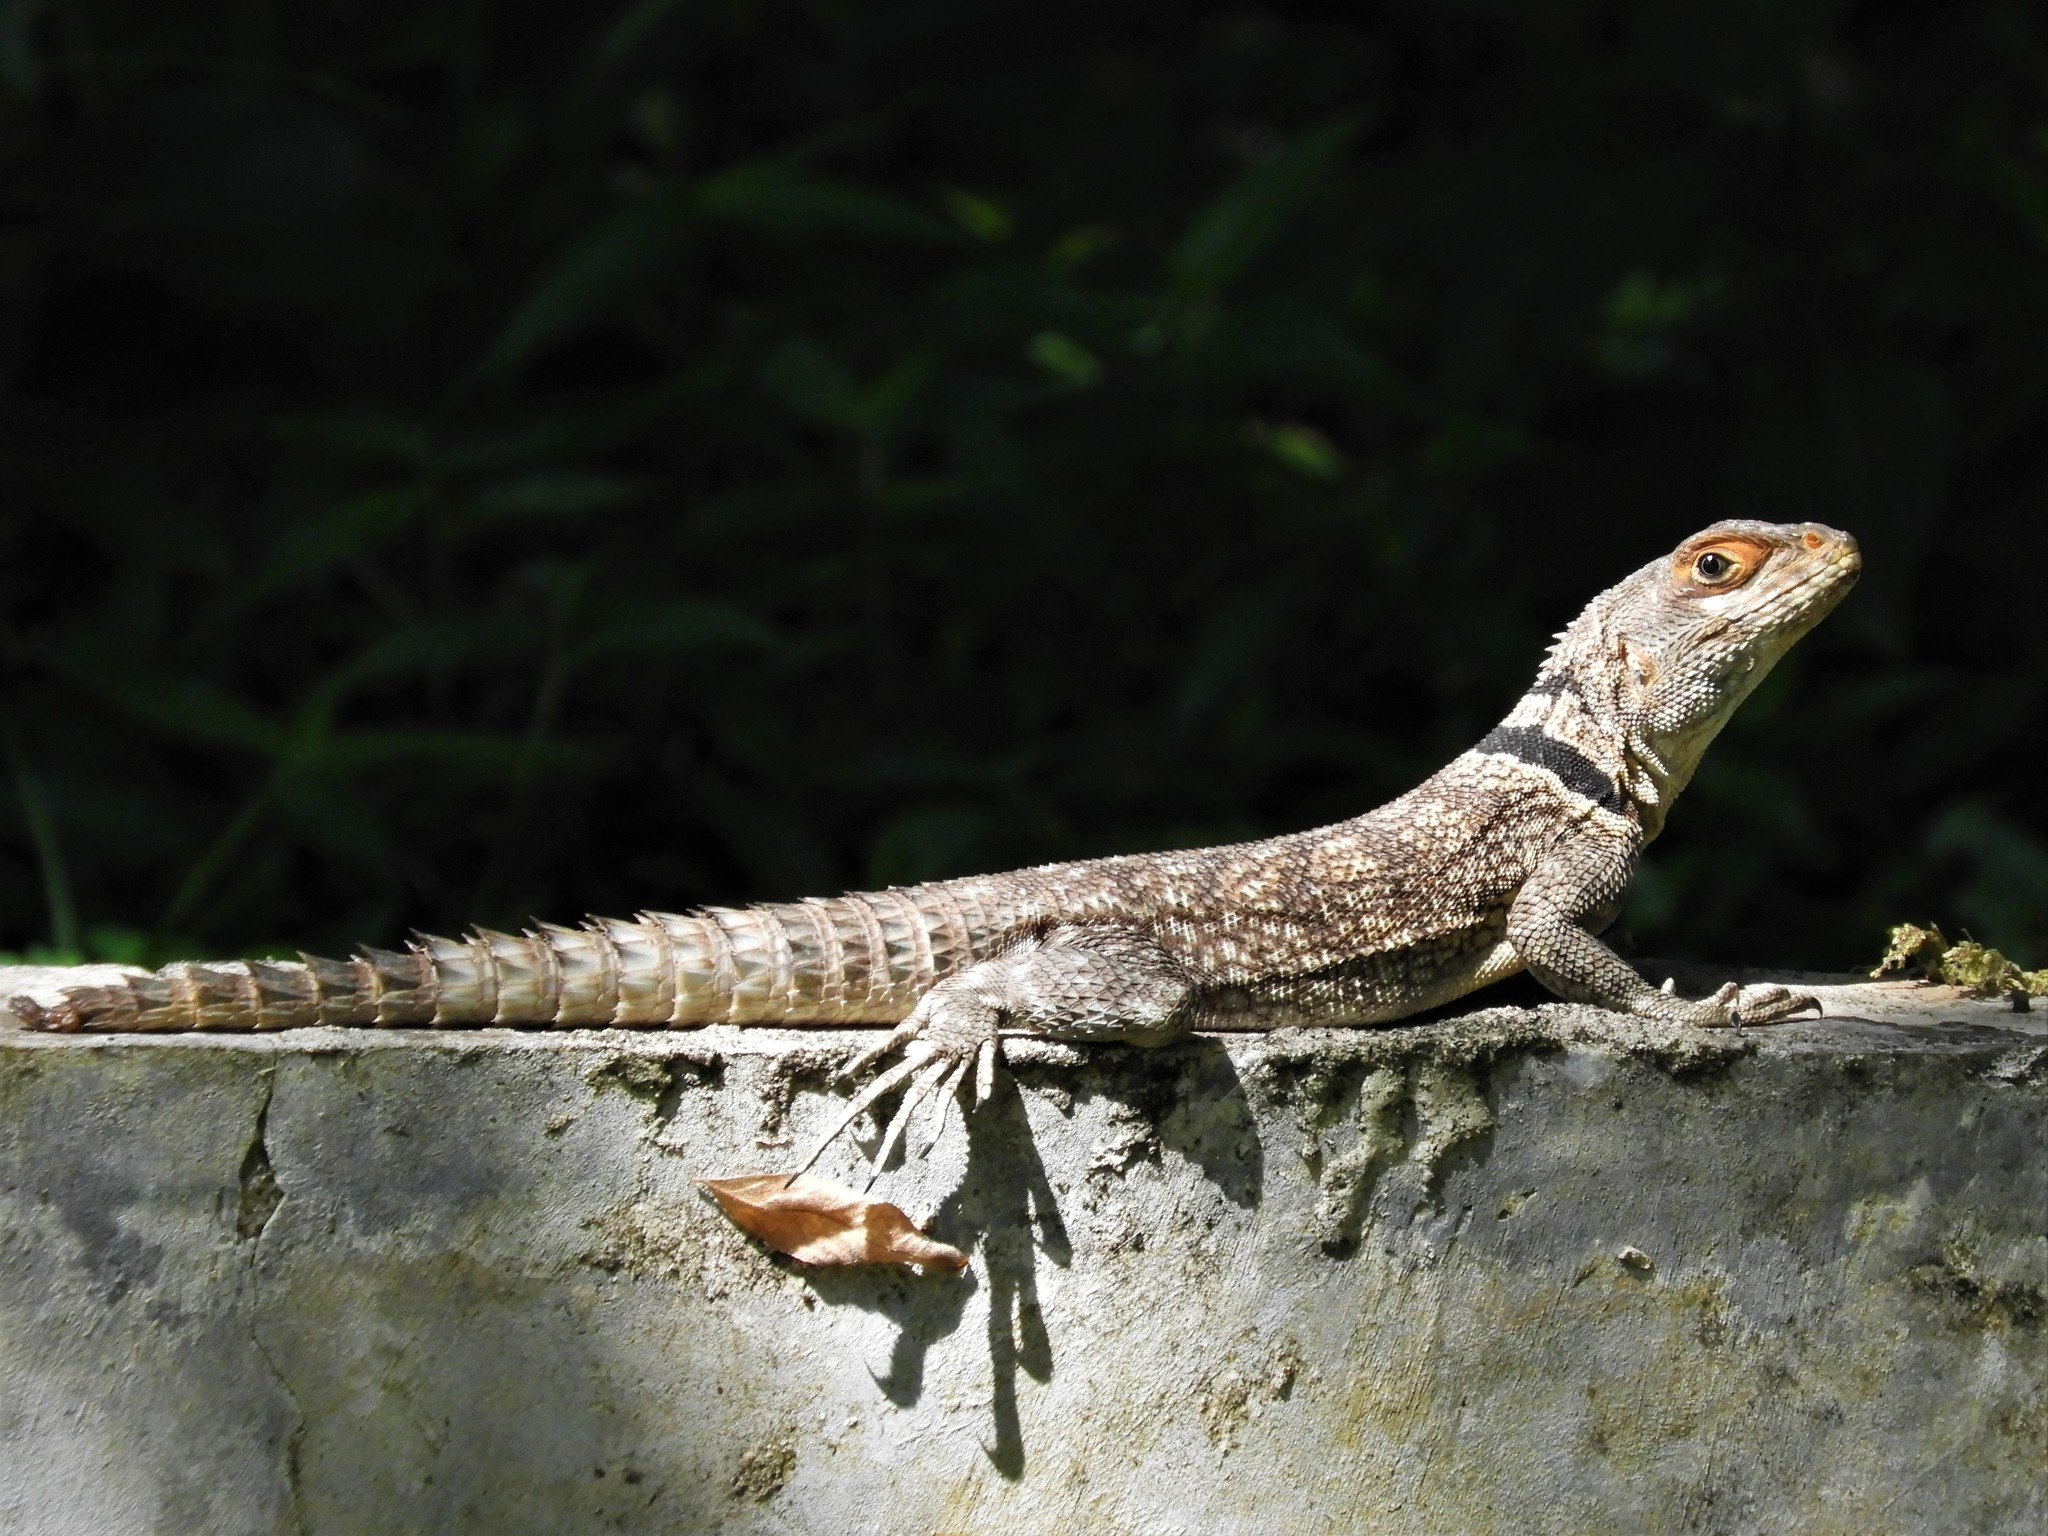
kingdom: Animalia
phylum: Chordata
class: Squamata
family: Opluridae
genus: Oplurus
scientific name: Oplurus cuvieri
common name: Cuvier's madagascar swift
